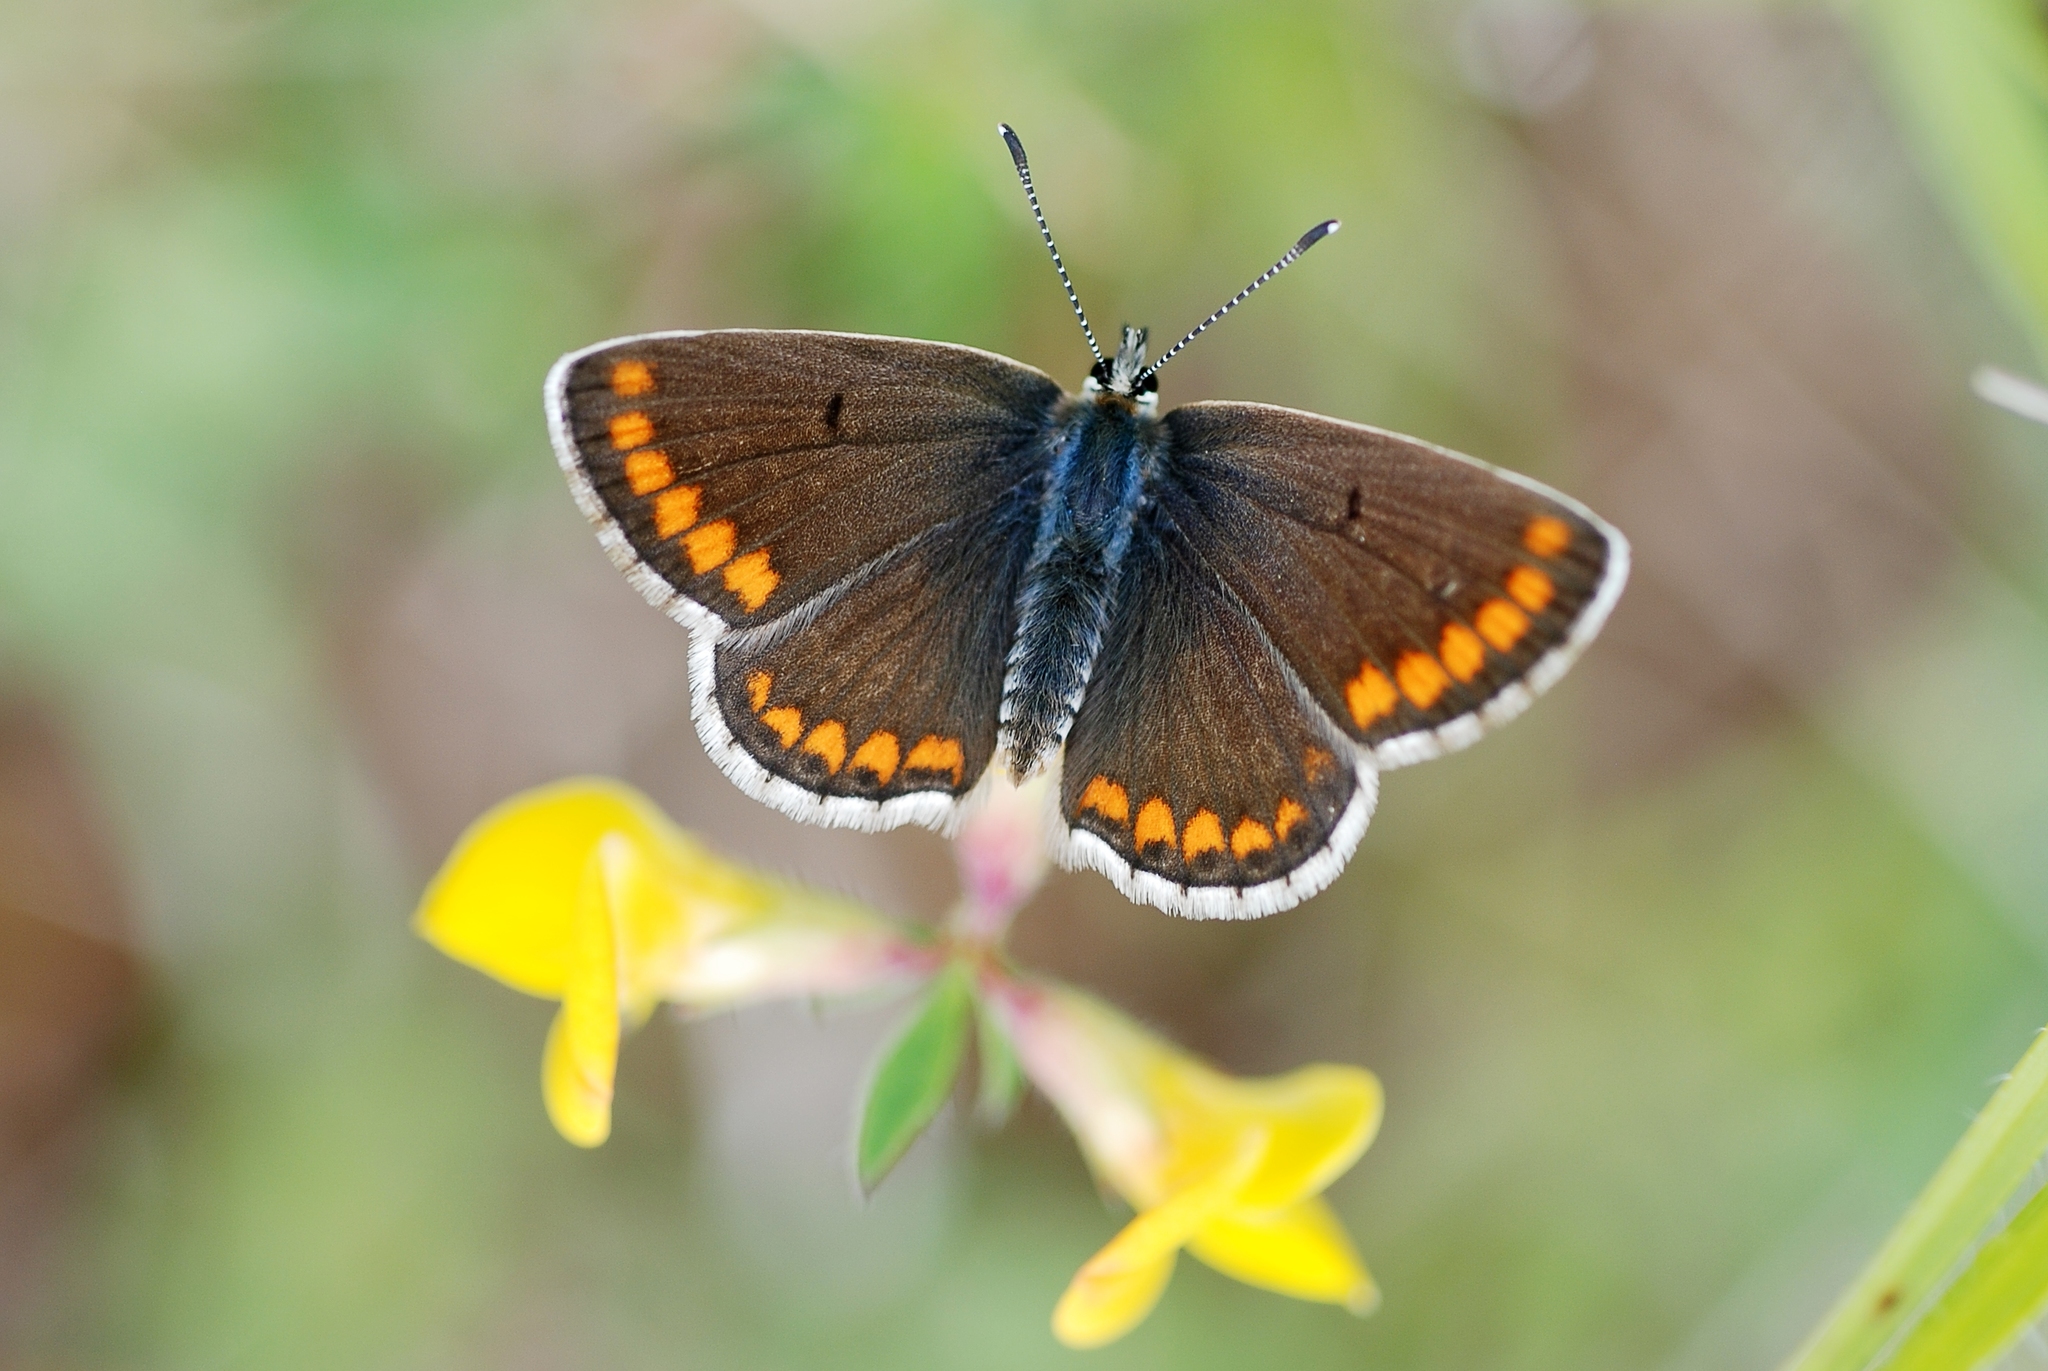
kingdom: Animalia
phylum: Arthropoda
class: Insecta
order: Lepidoptera
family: Lycaenidae
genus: Aricia
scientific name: Aricia agestis
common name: Brown argus
